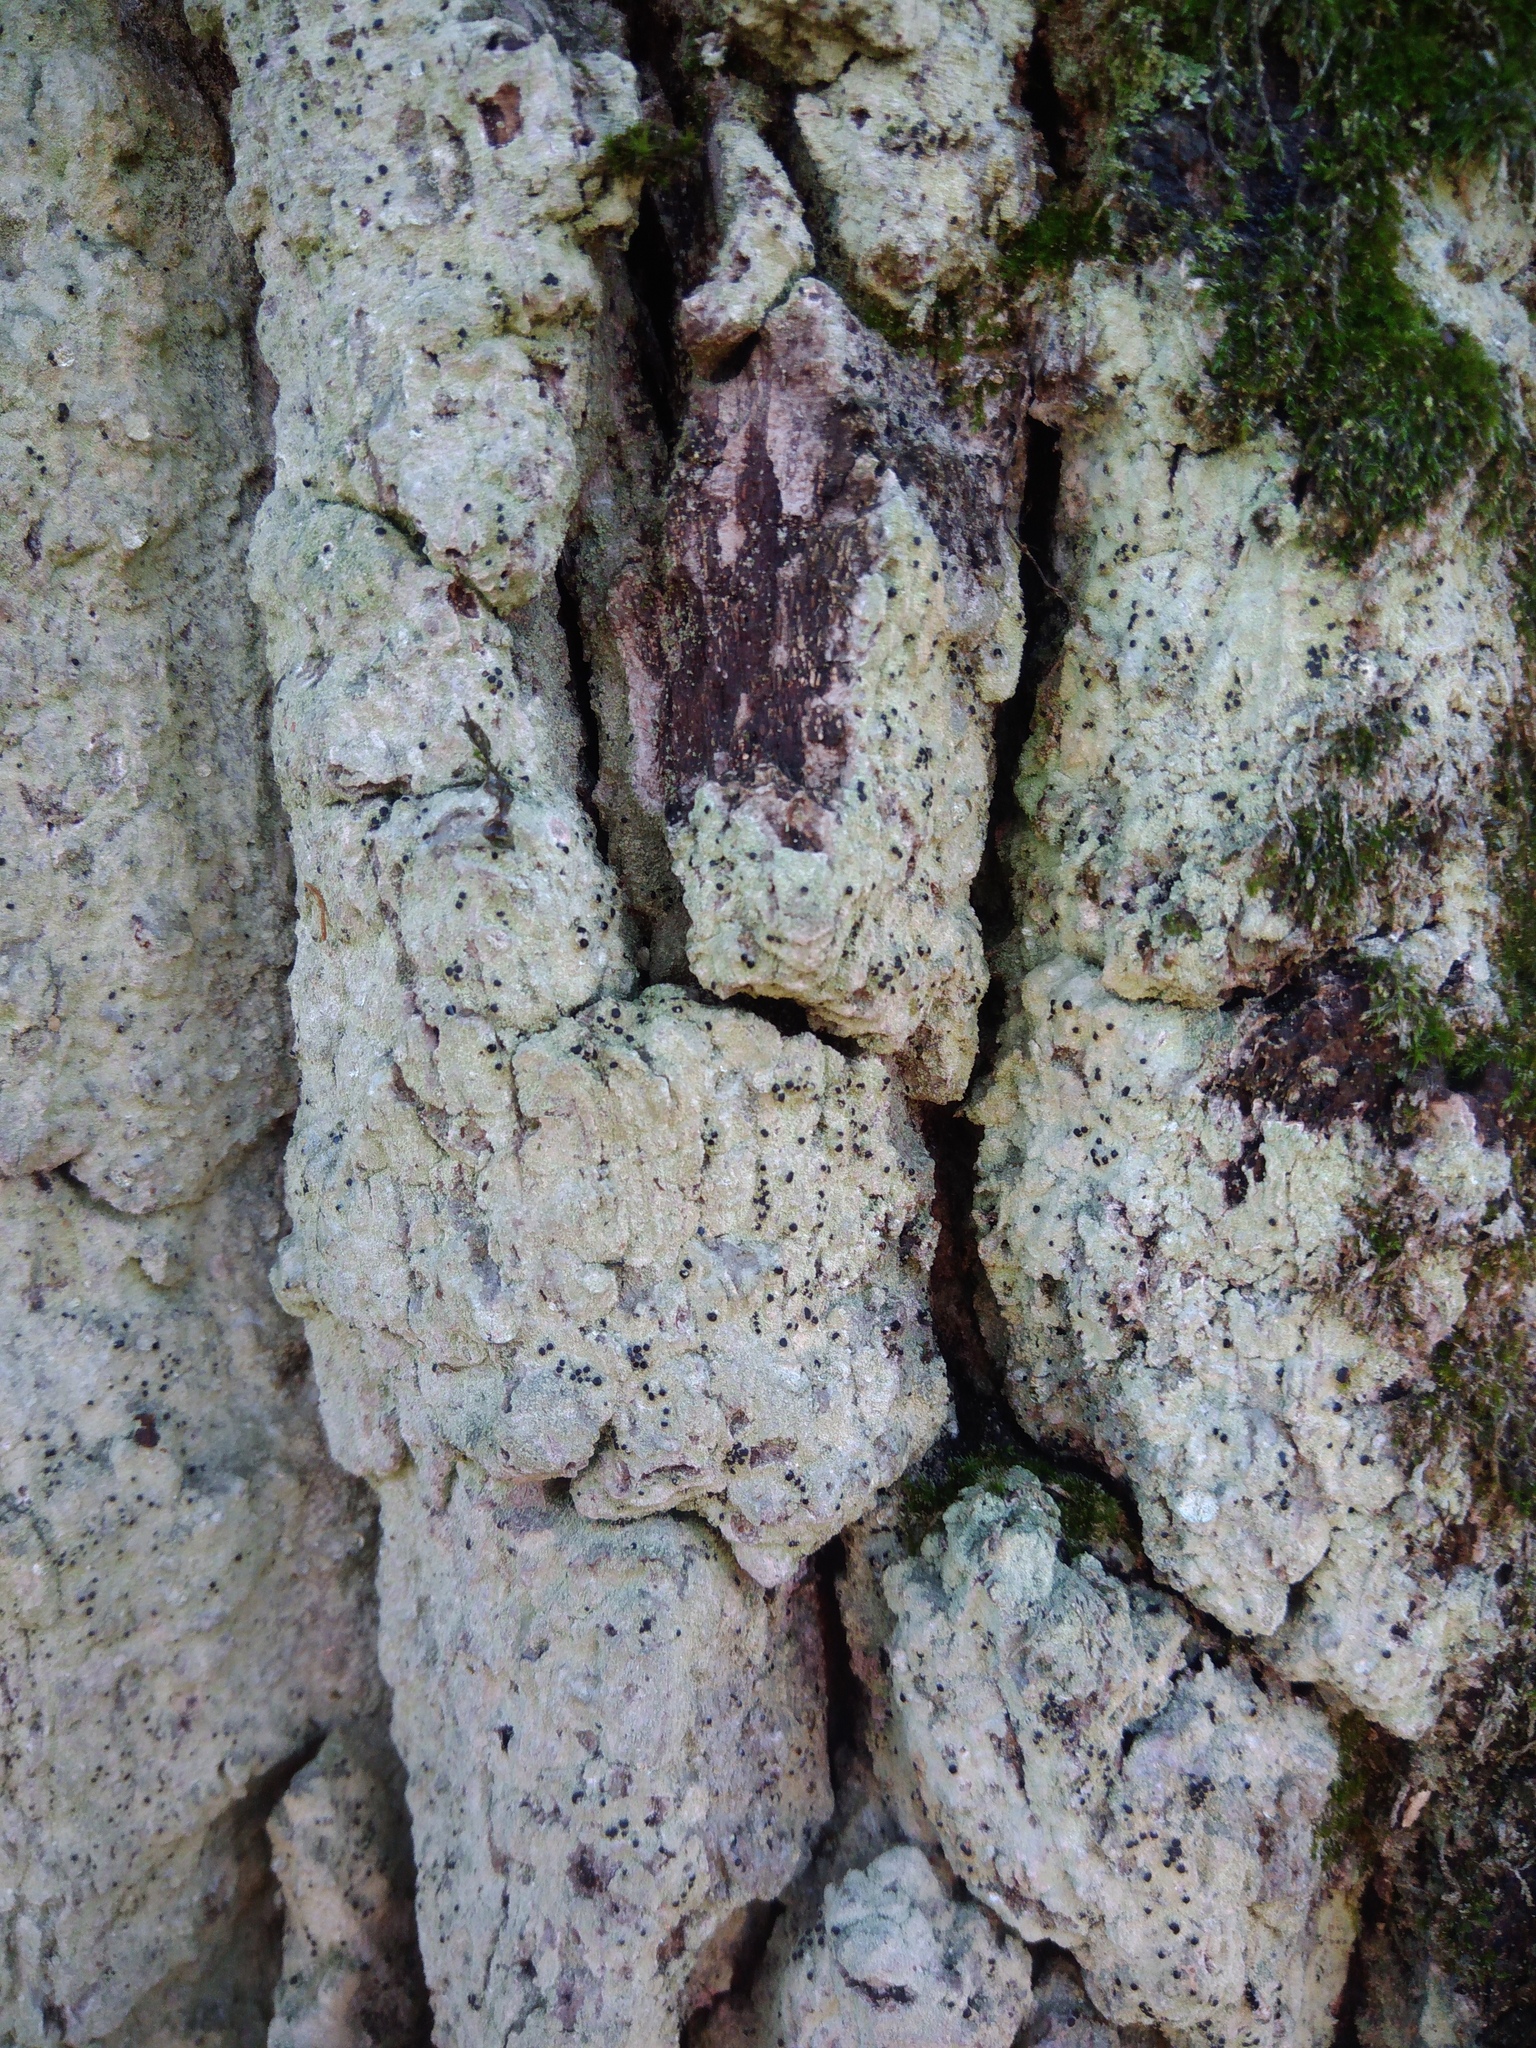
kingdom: Fungi
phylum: Ascomycota
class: Lecanoromycetes
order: Ostropales
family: Phlyctidaceae
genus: Phlyctis
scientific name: Phlyctis argena
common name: Whitewash lichen
